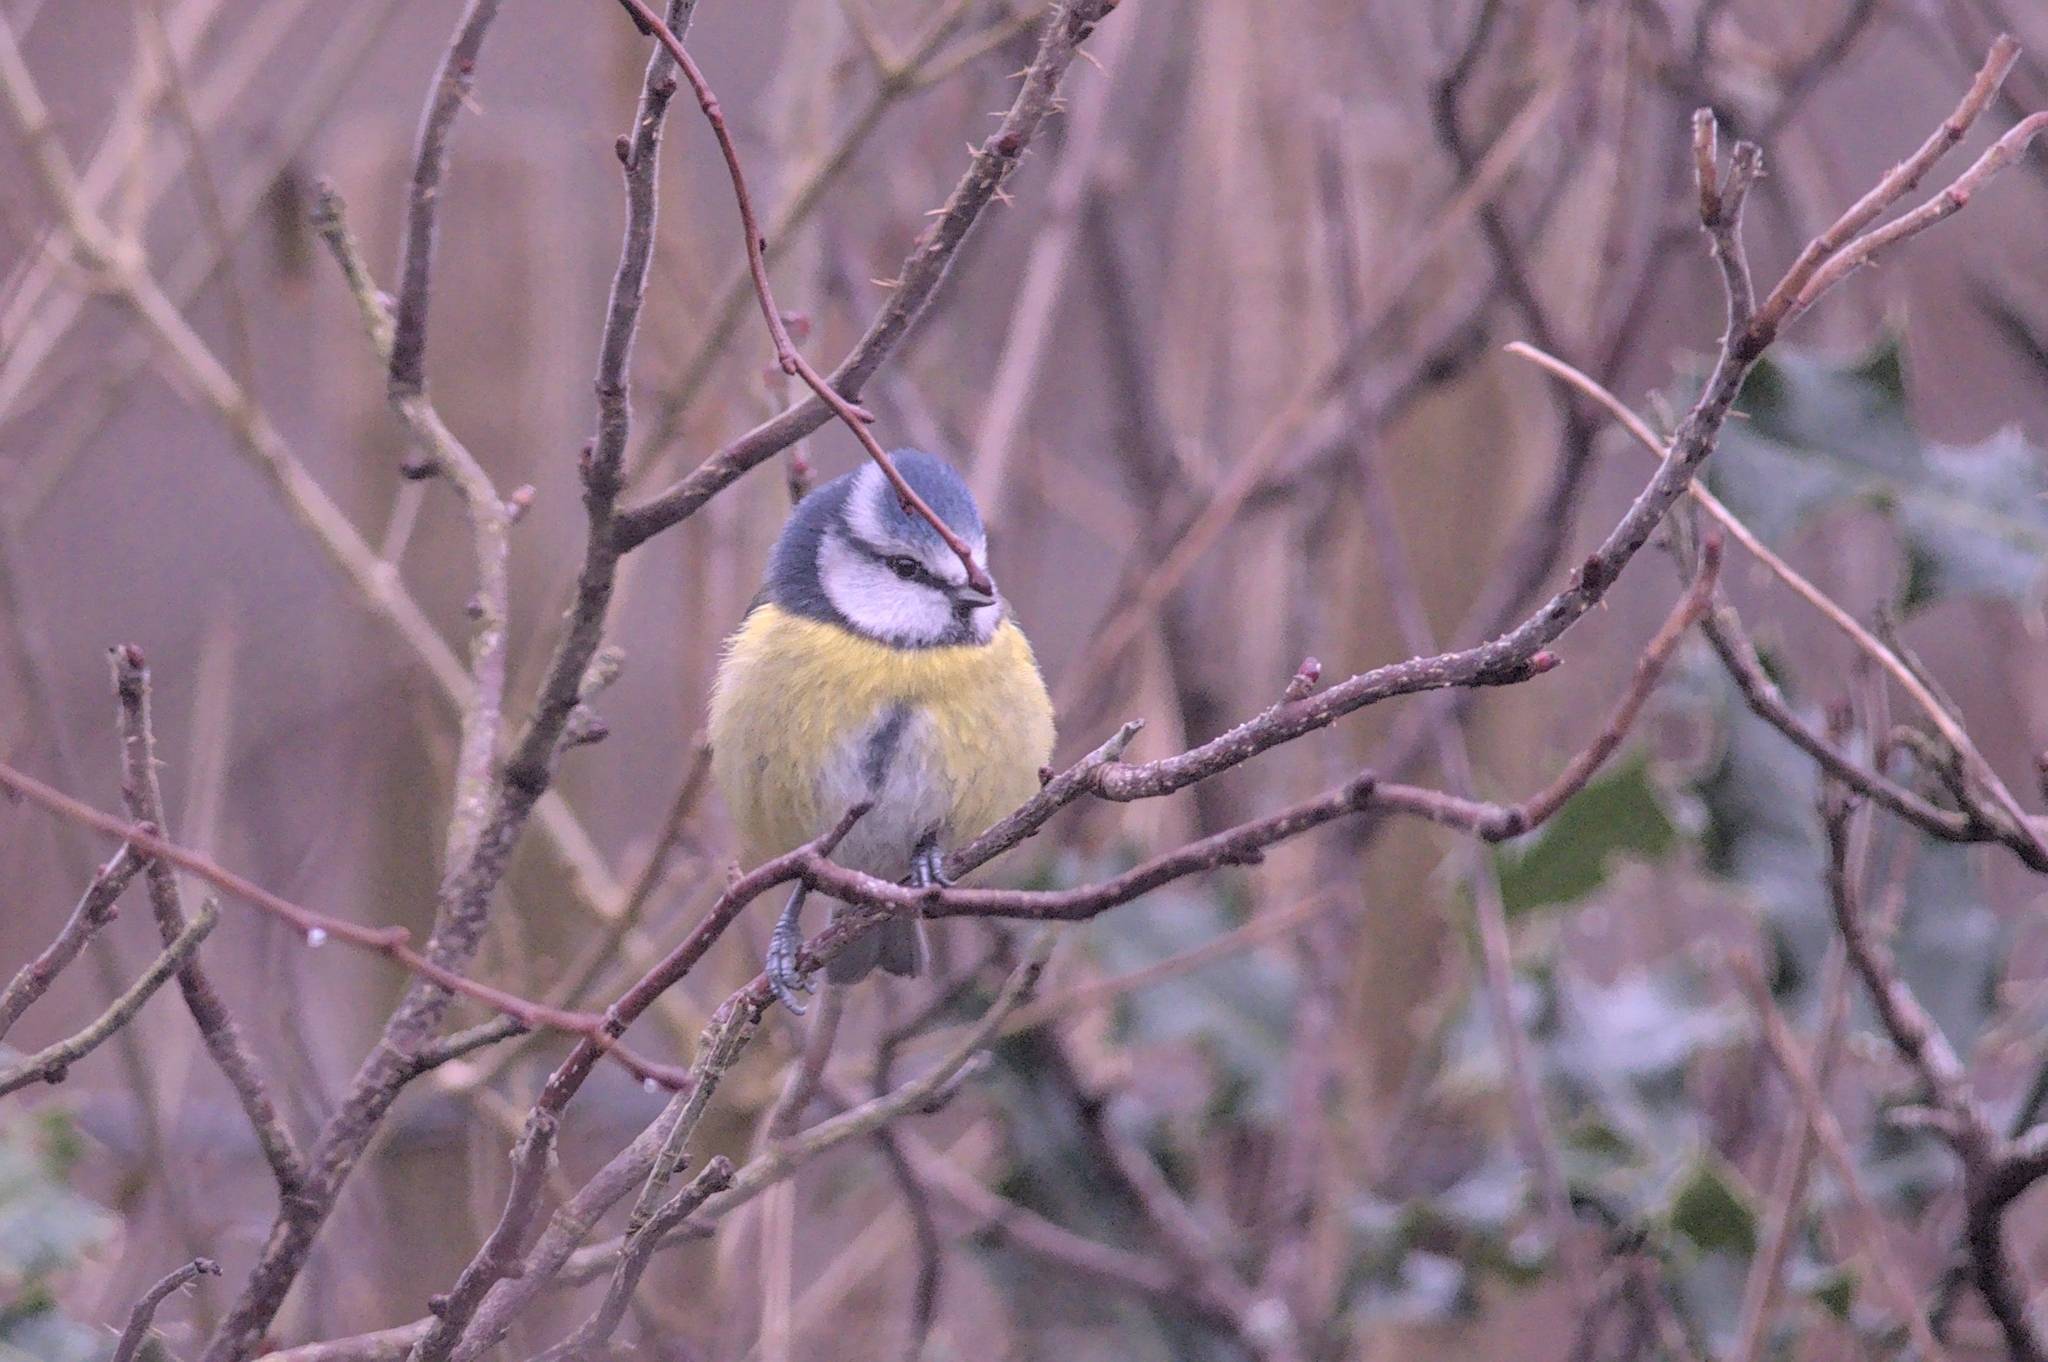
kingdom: Animalia
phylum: Chordata
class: Aves
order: Passeriformes
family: Paridae
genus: Cyanistes
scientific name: Cyanistes caeruleus
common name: Eurasian blue tit
